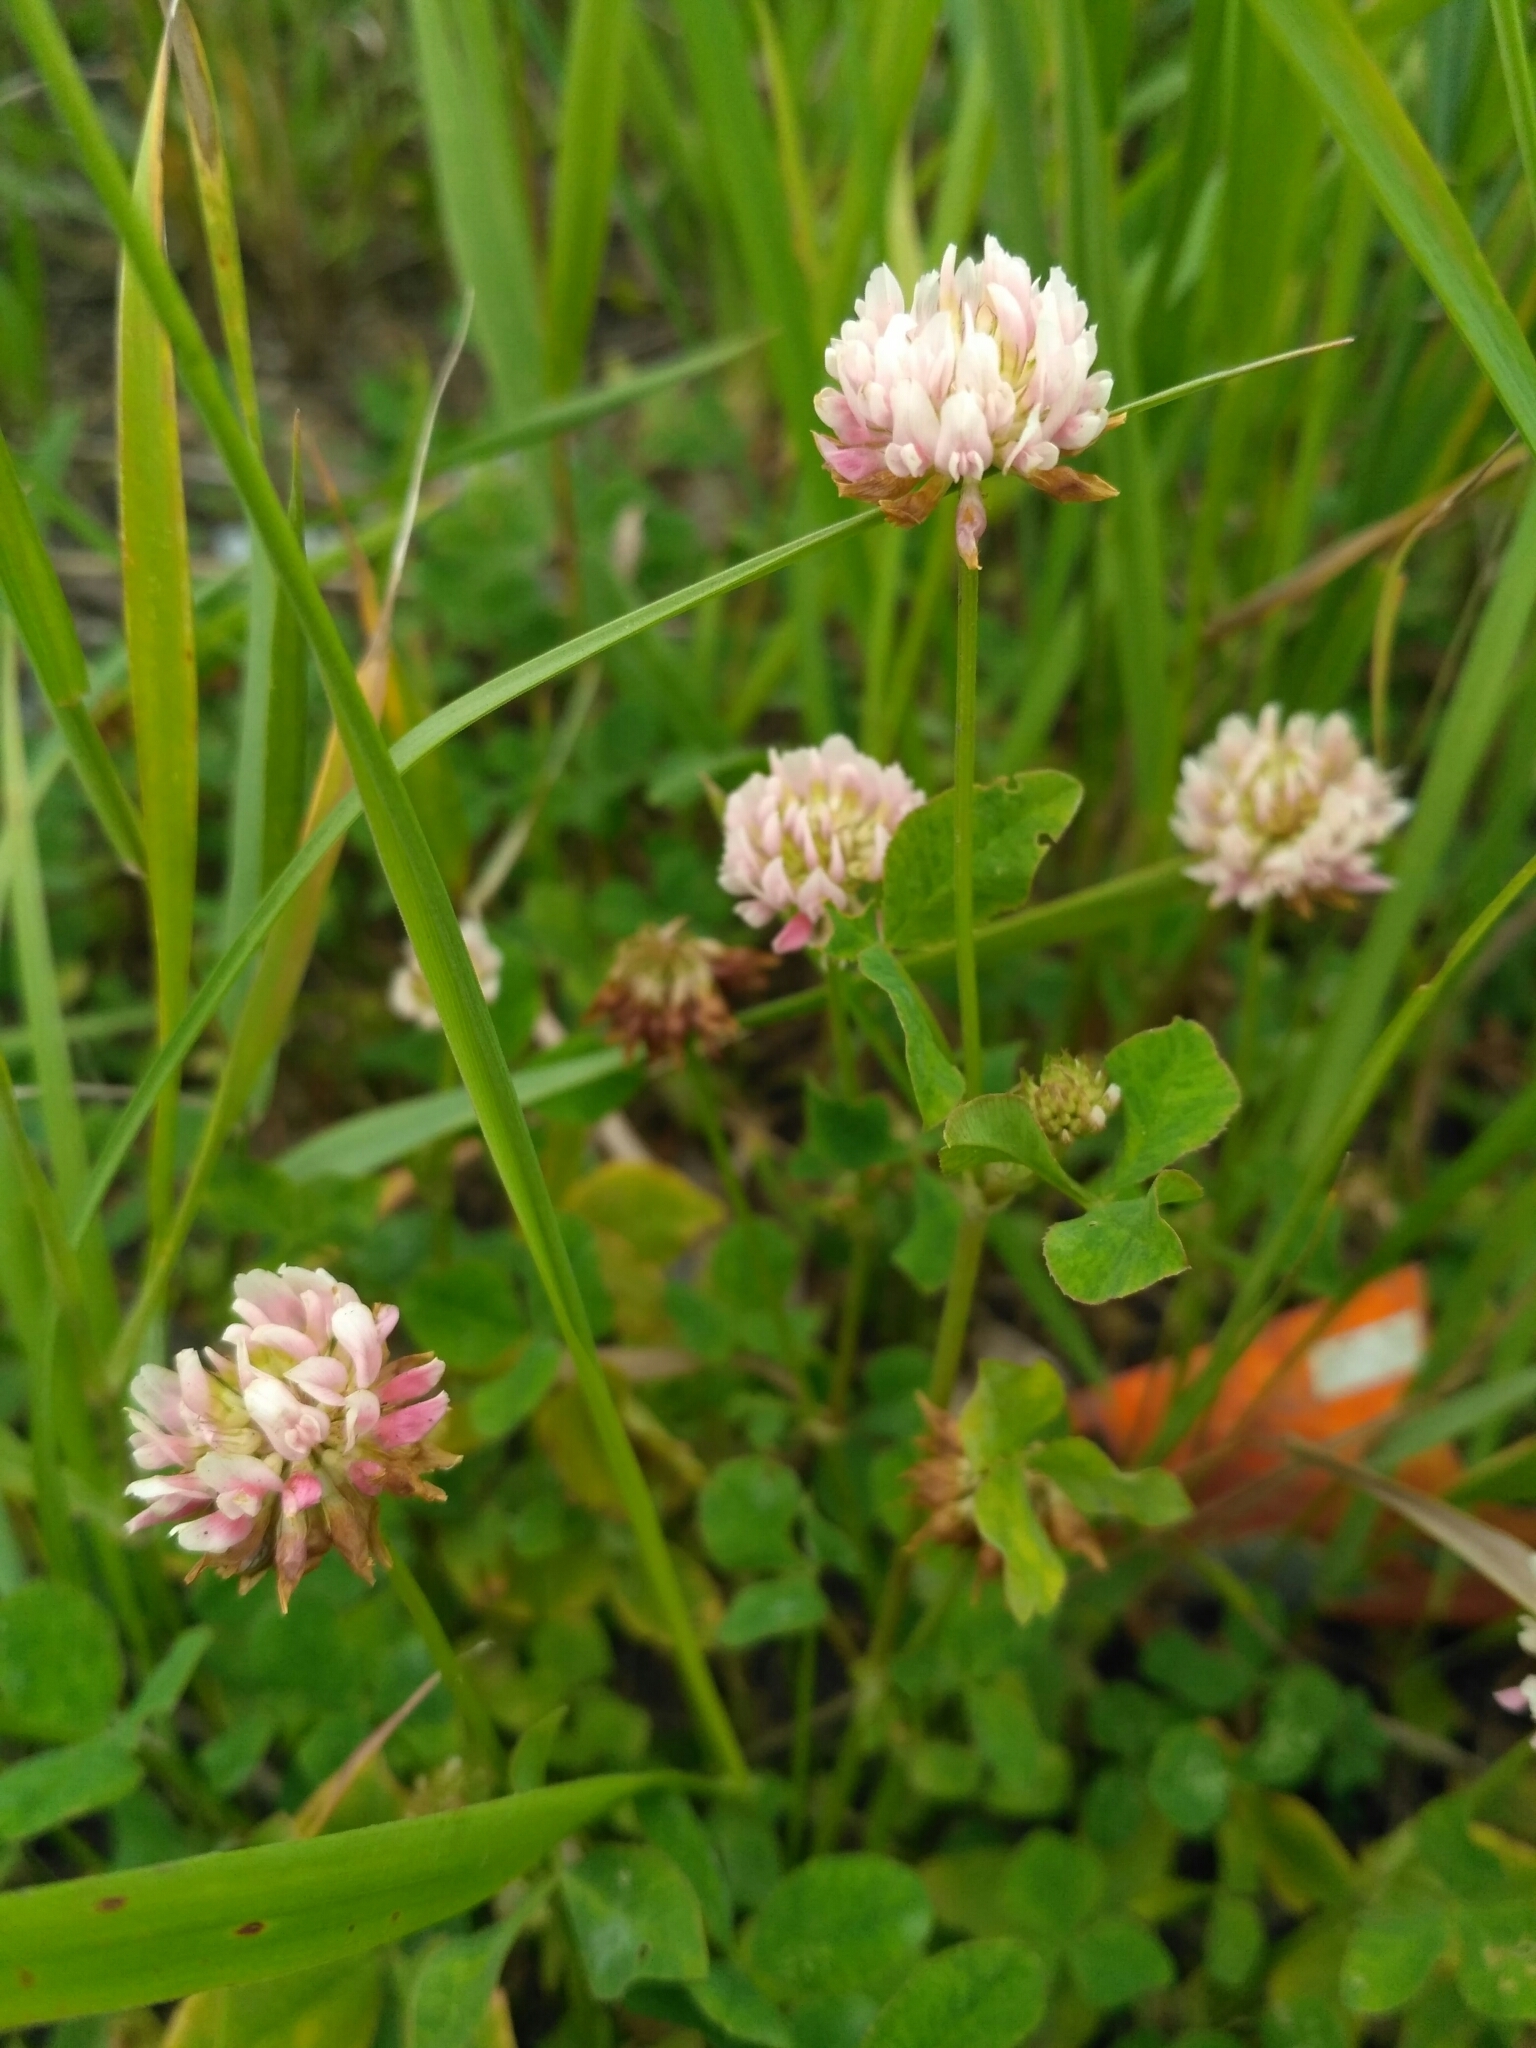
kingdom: Plantae
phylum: Tracheophyta
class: Magnoliopsida
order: Fabales
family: Fabaceae
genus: Trifolium
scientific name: Trifolium hybridum
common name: Alsike clover
